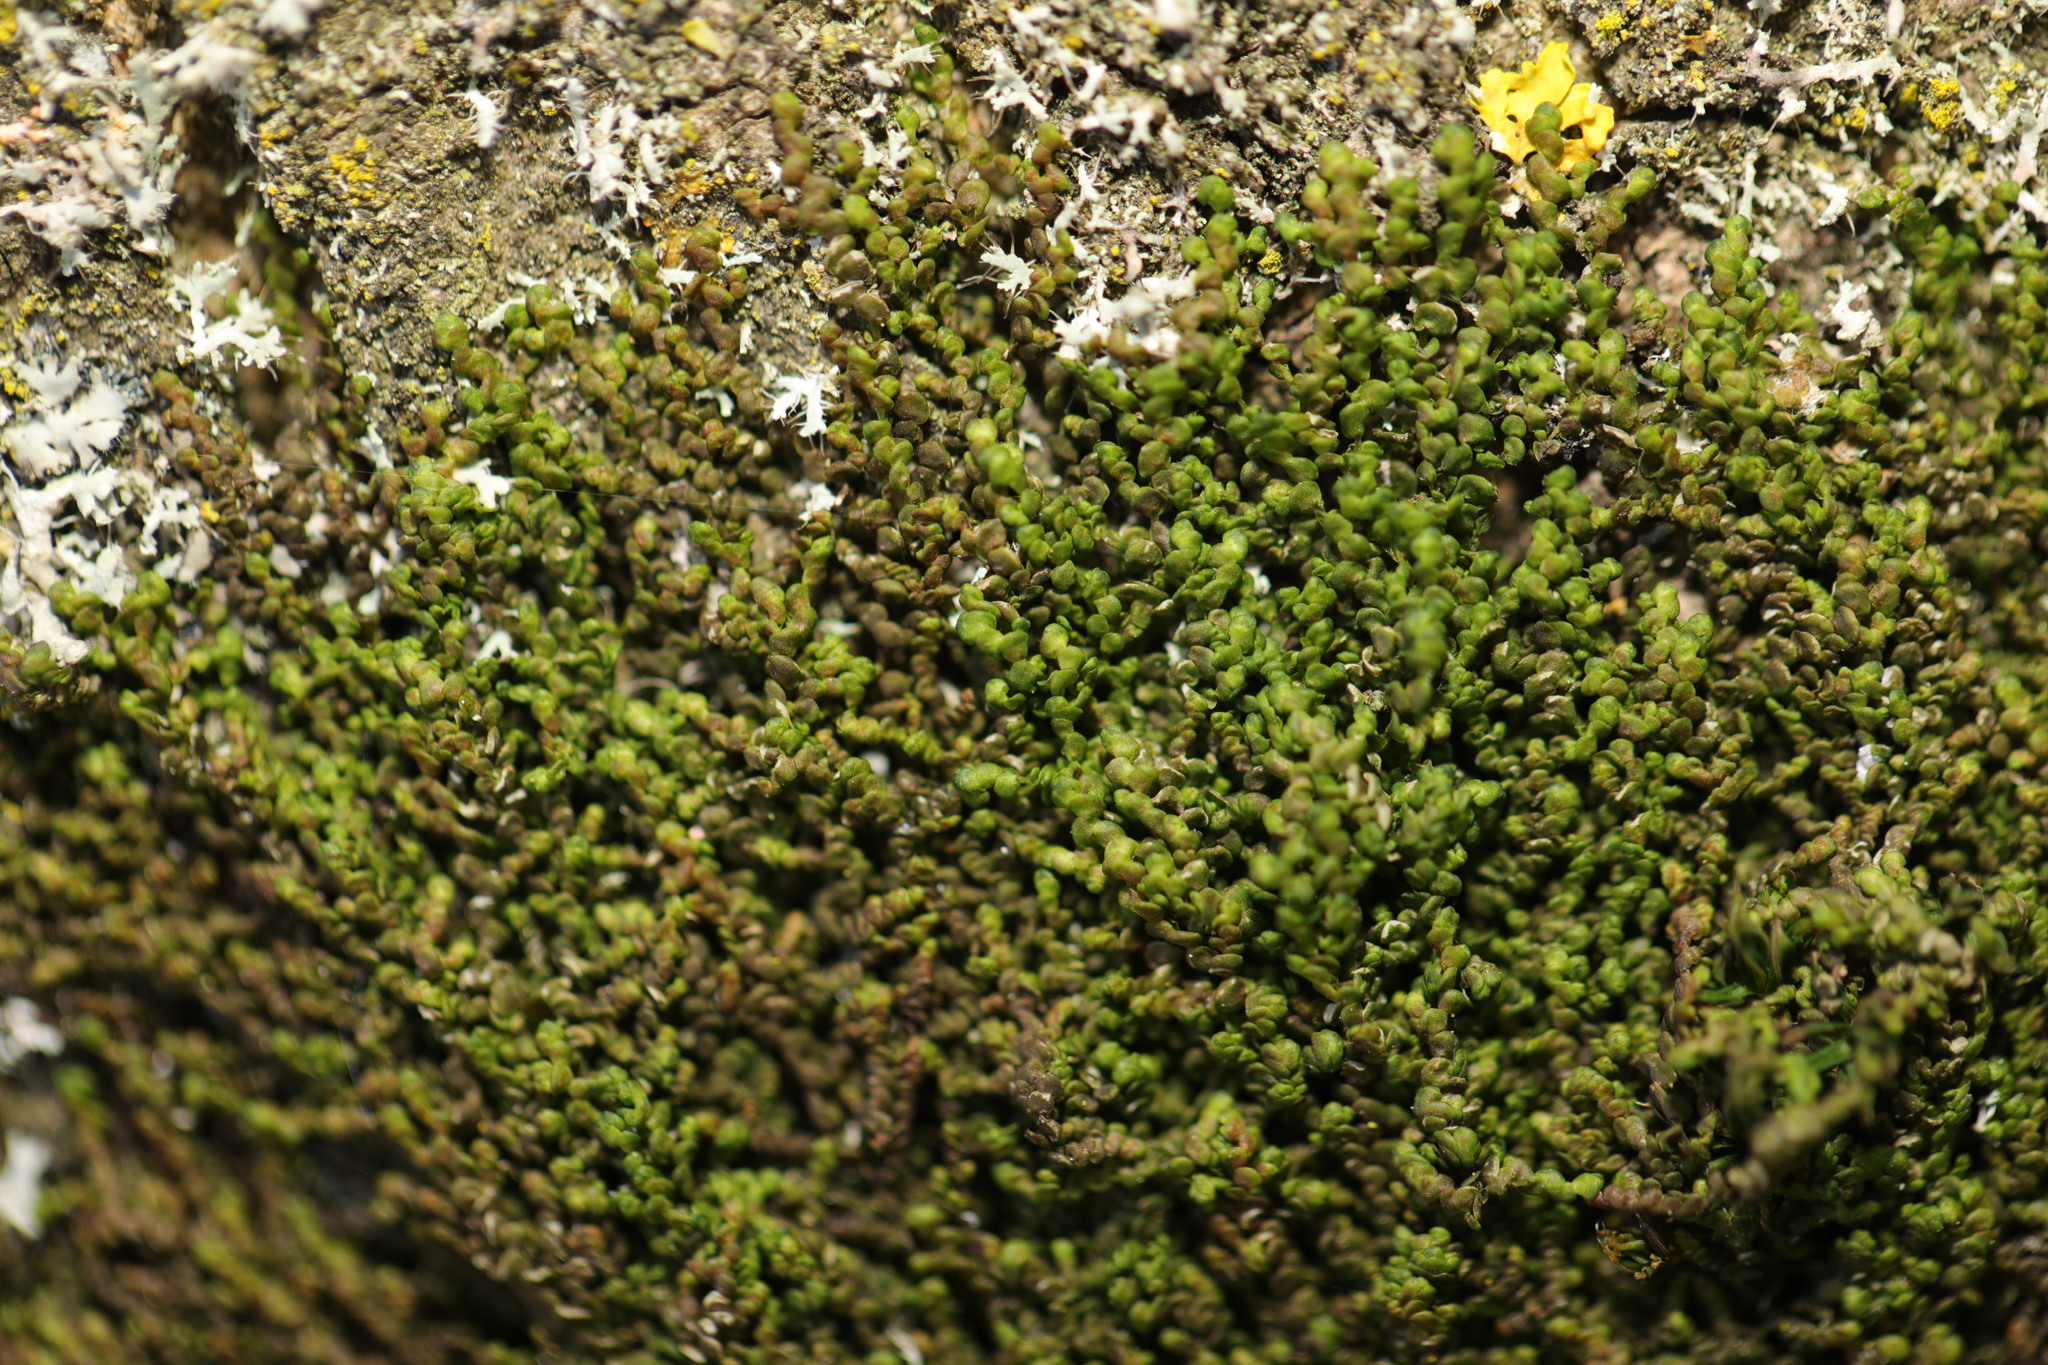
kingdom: Plantae
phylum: Marchantiophyta
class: Jungermanniopsida
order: Porellales
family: Frullaniaceae
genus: Frullania
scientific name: Frullania dilatata
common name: Dilated scalewort
